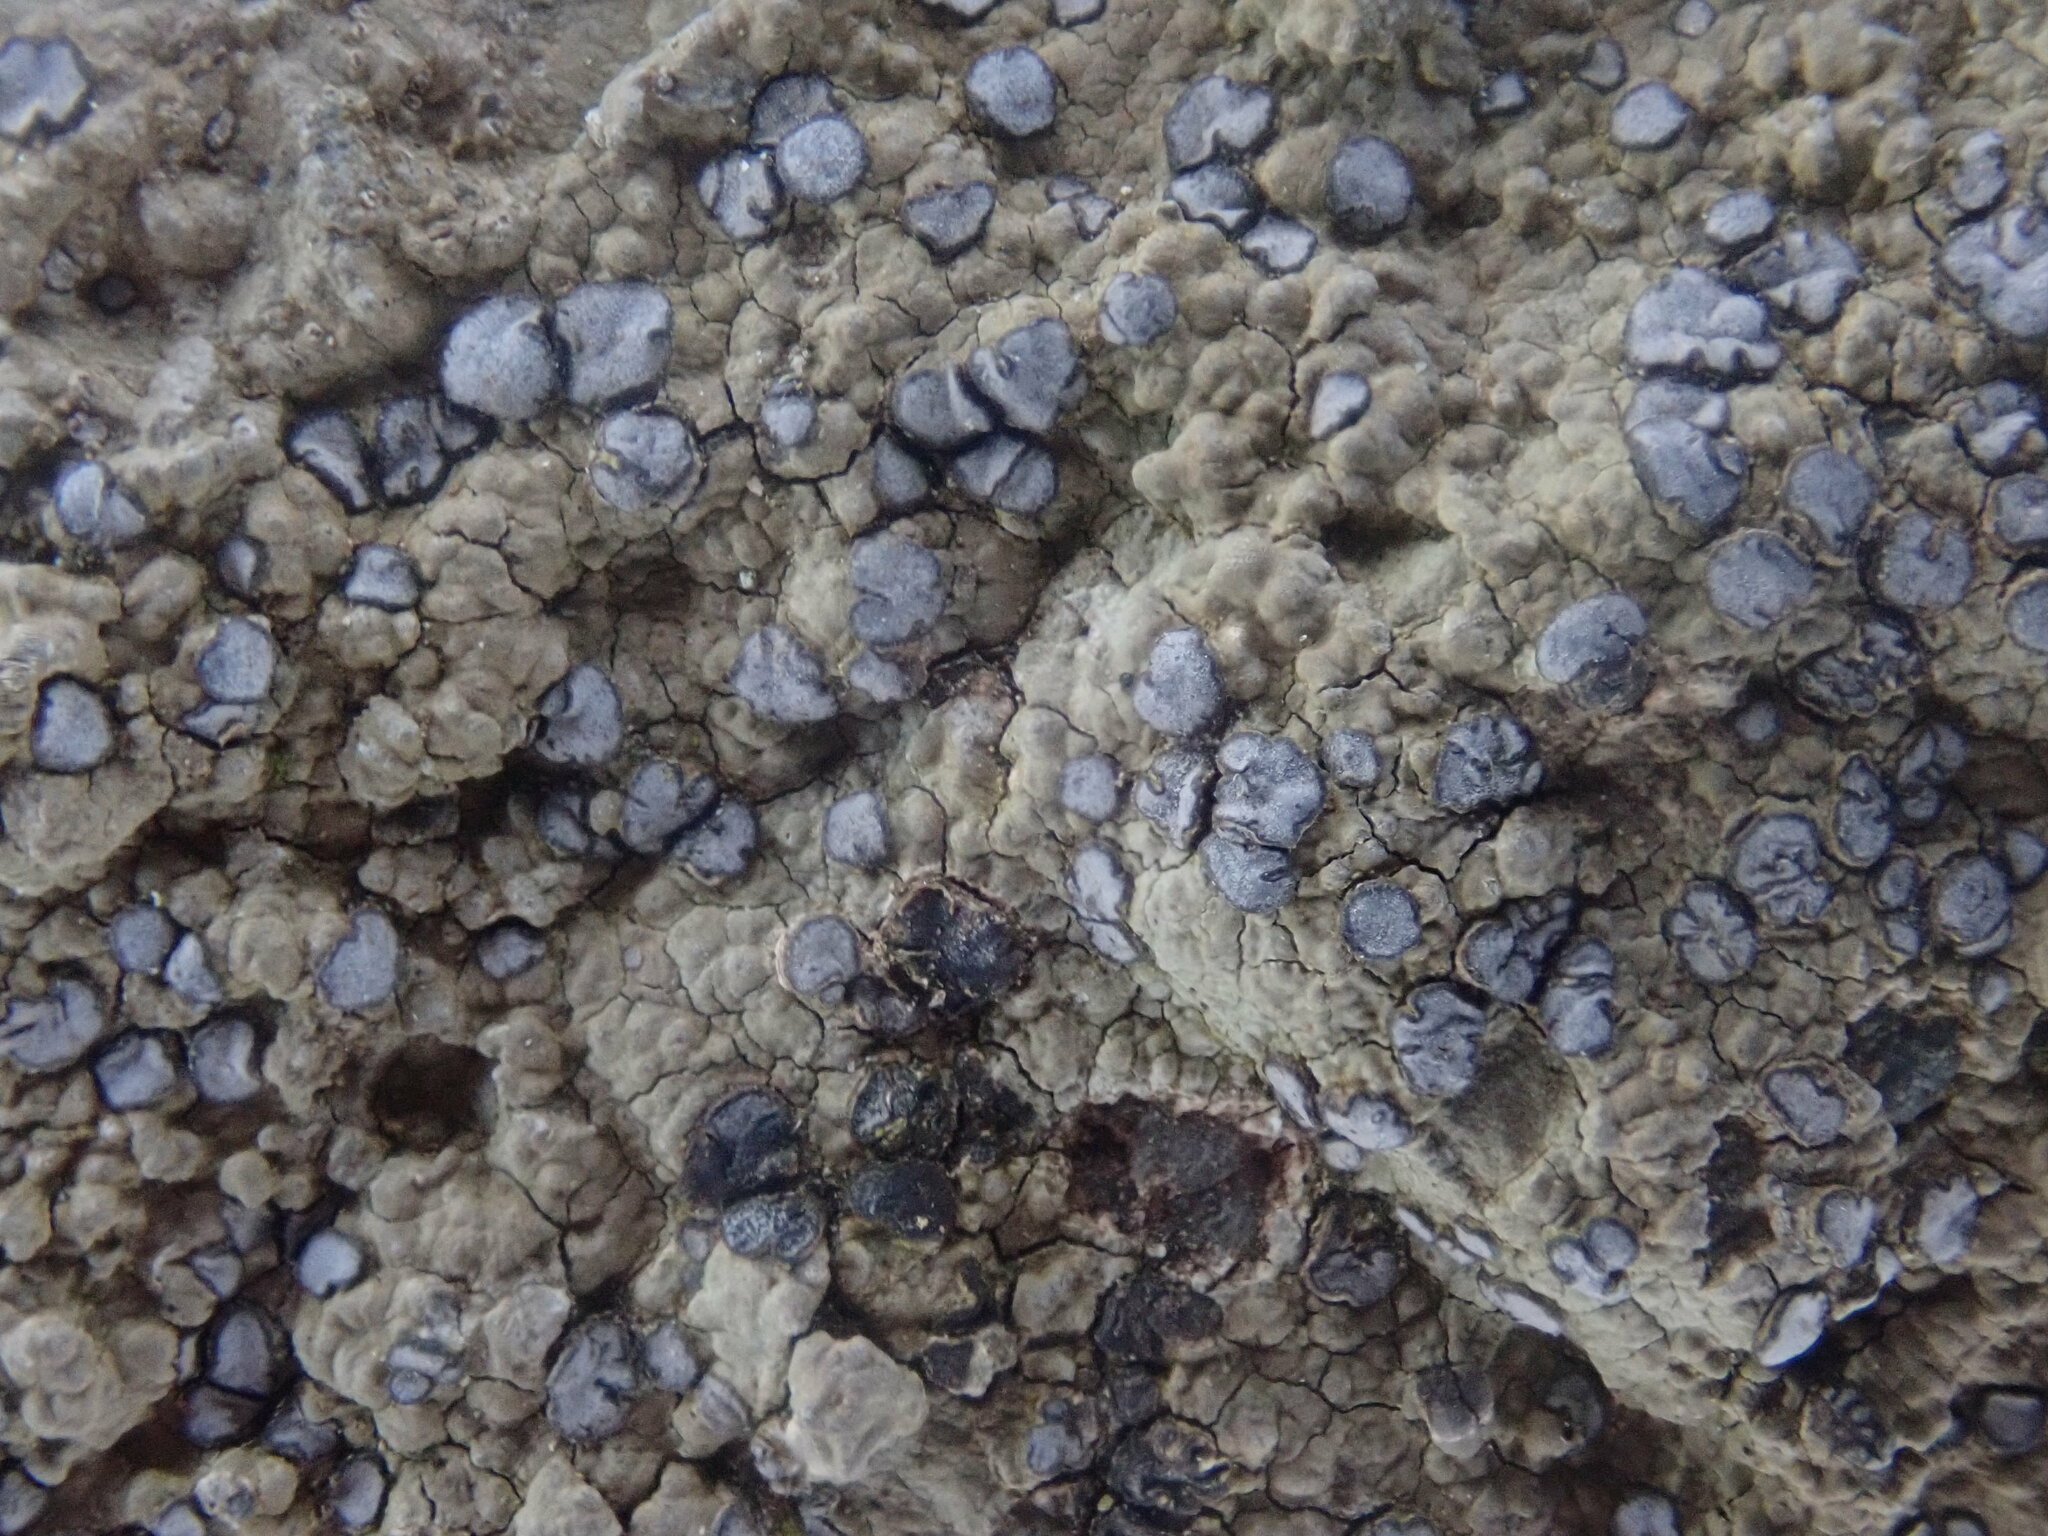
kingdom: Fungi
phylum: Ascomycota
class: Lecanoromycetes
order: Lecideales
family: Lecideaceae
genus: Porpidia
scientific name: Porpidia albocaerulescens
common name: Smokey-eyed boulder lichen
